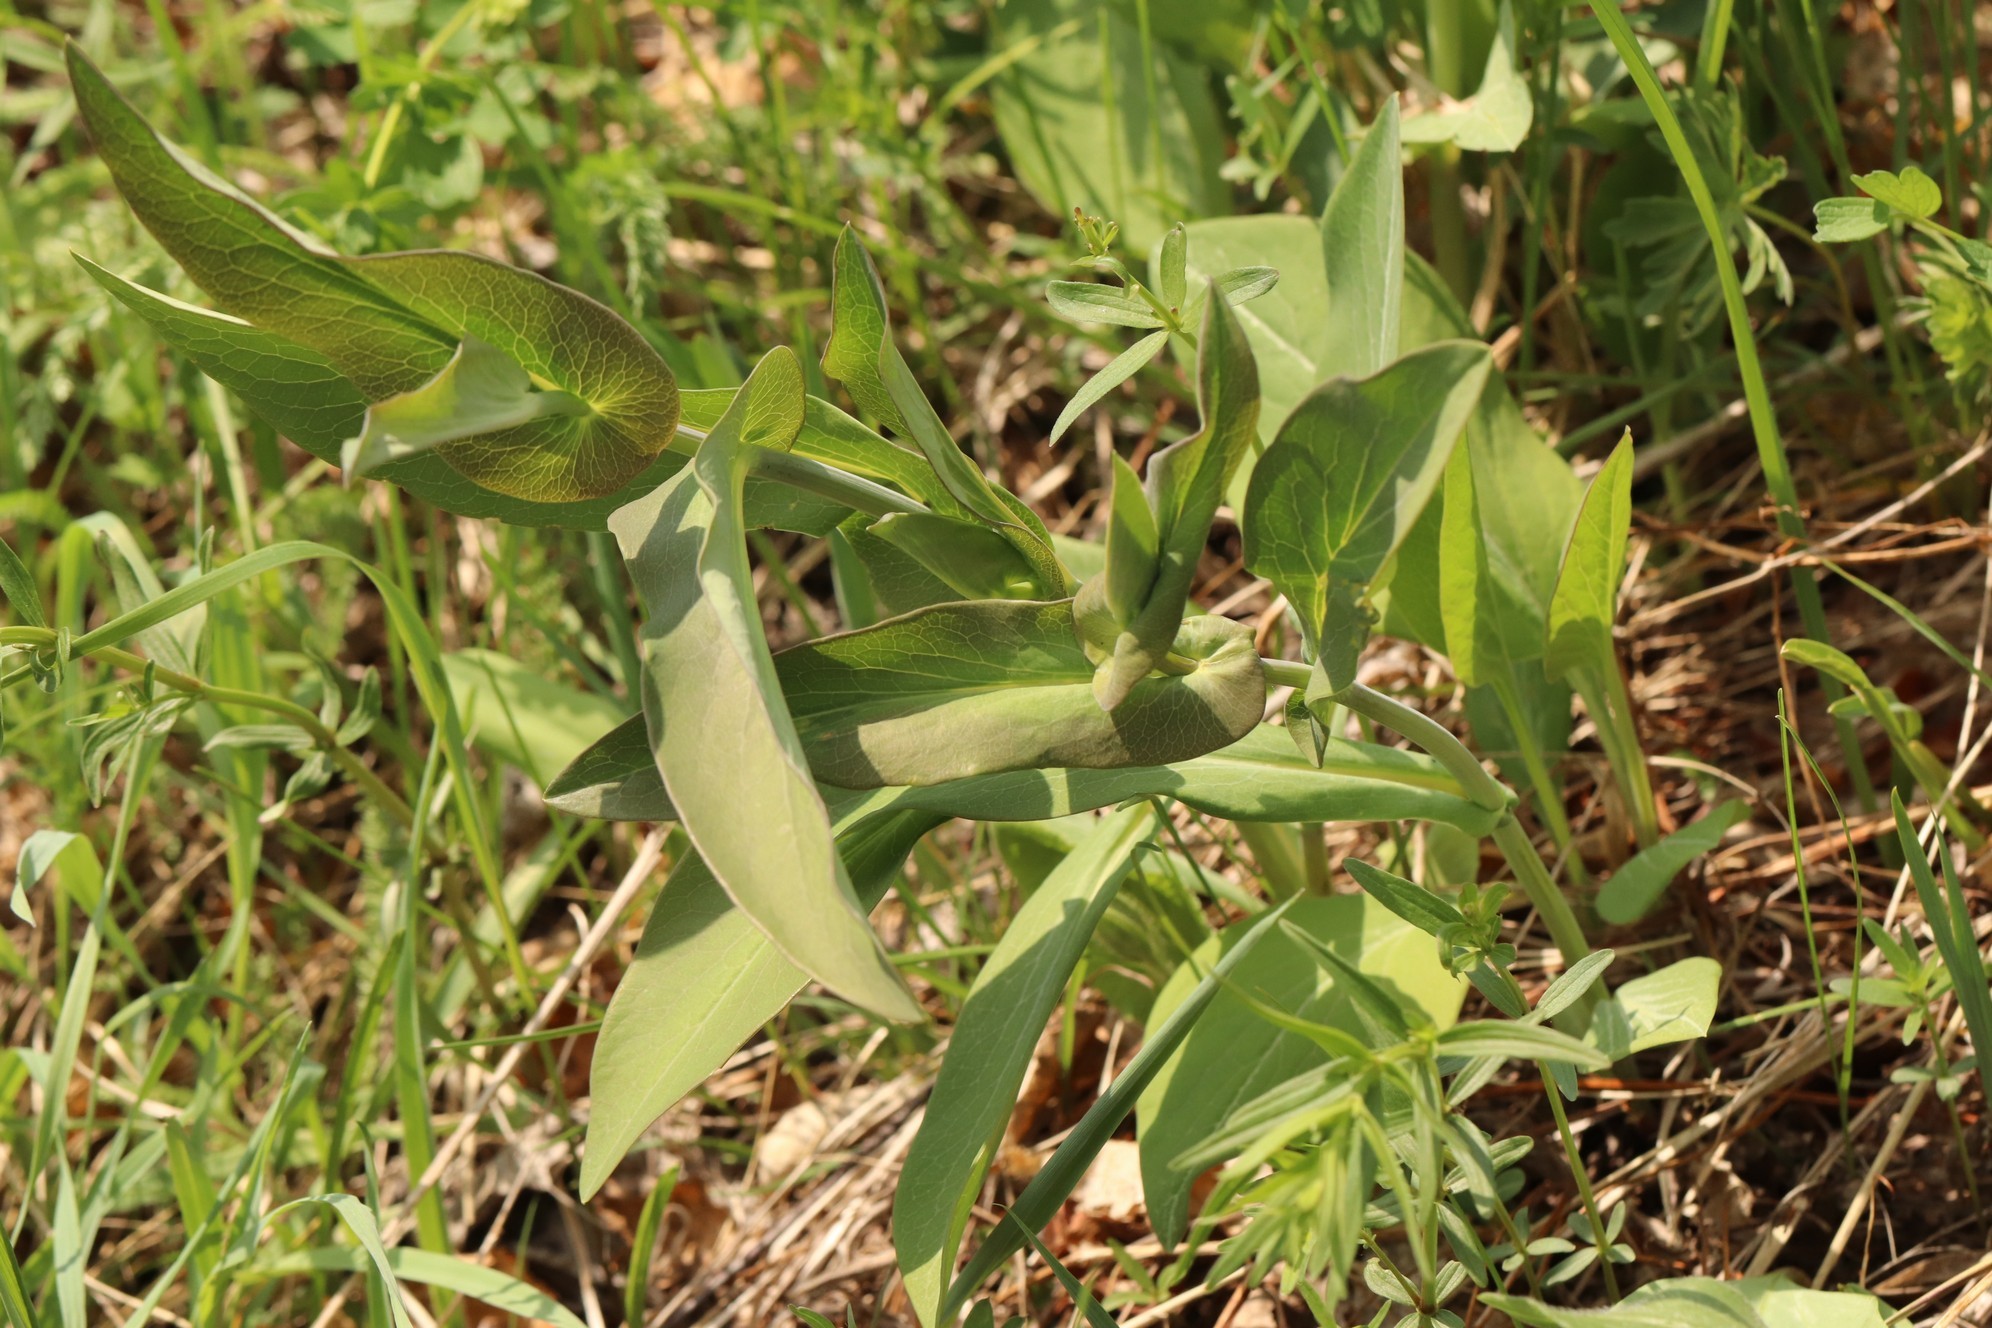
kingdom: Plantae
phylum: Tracheophyta
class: Magnoliopsida
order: Apiales
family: Apiaceae
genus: Bupleurum
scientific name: Bupleurum aureum
